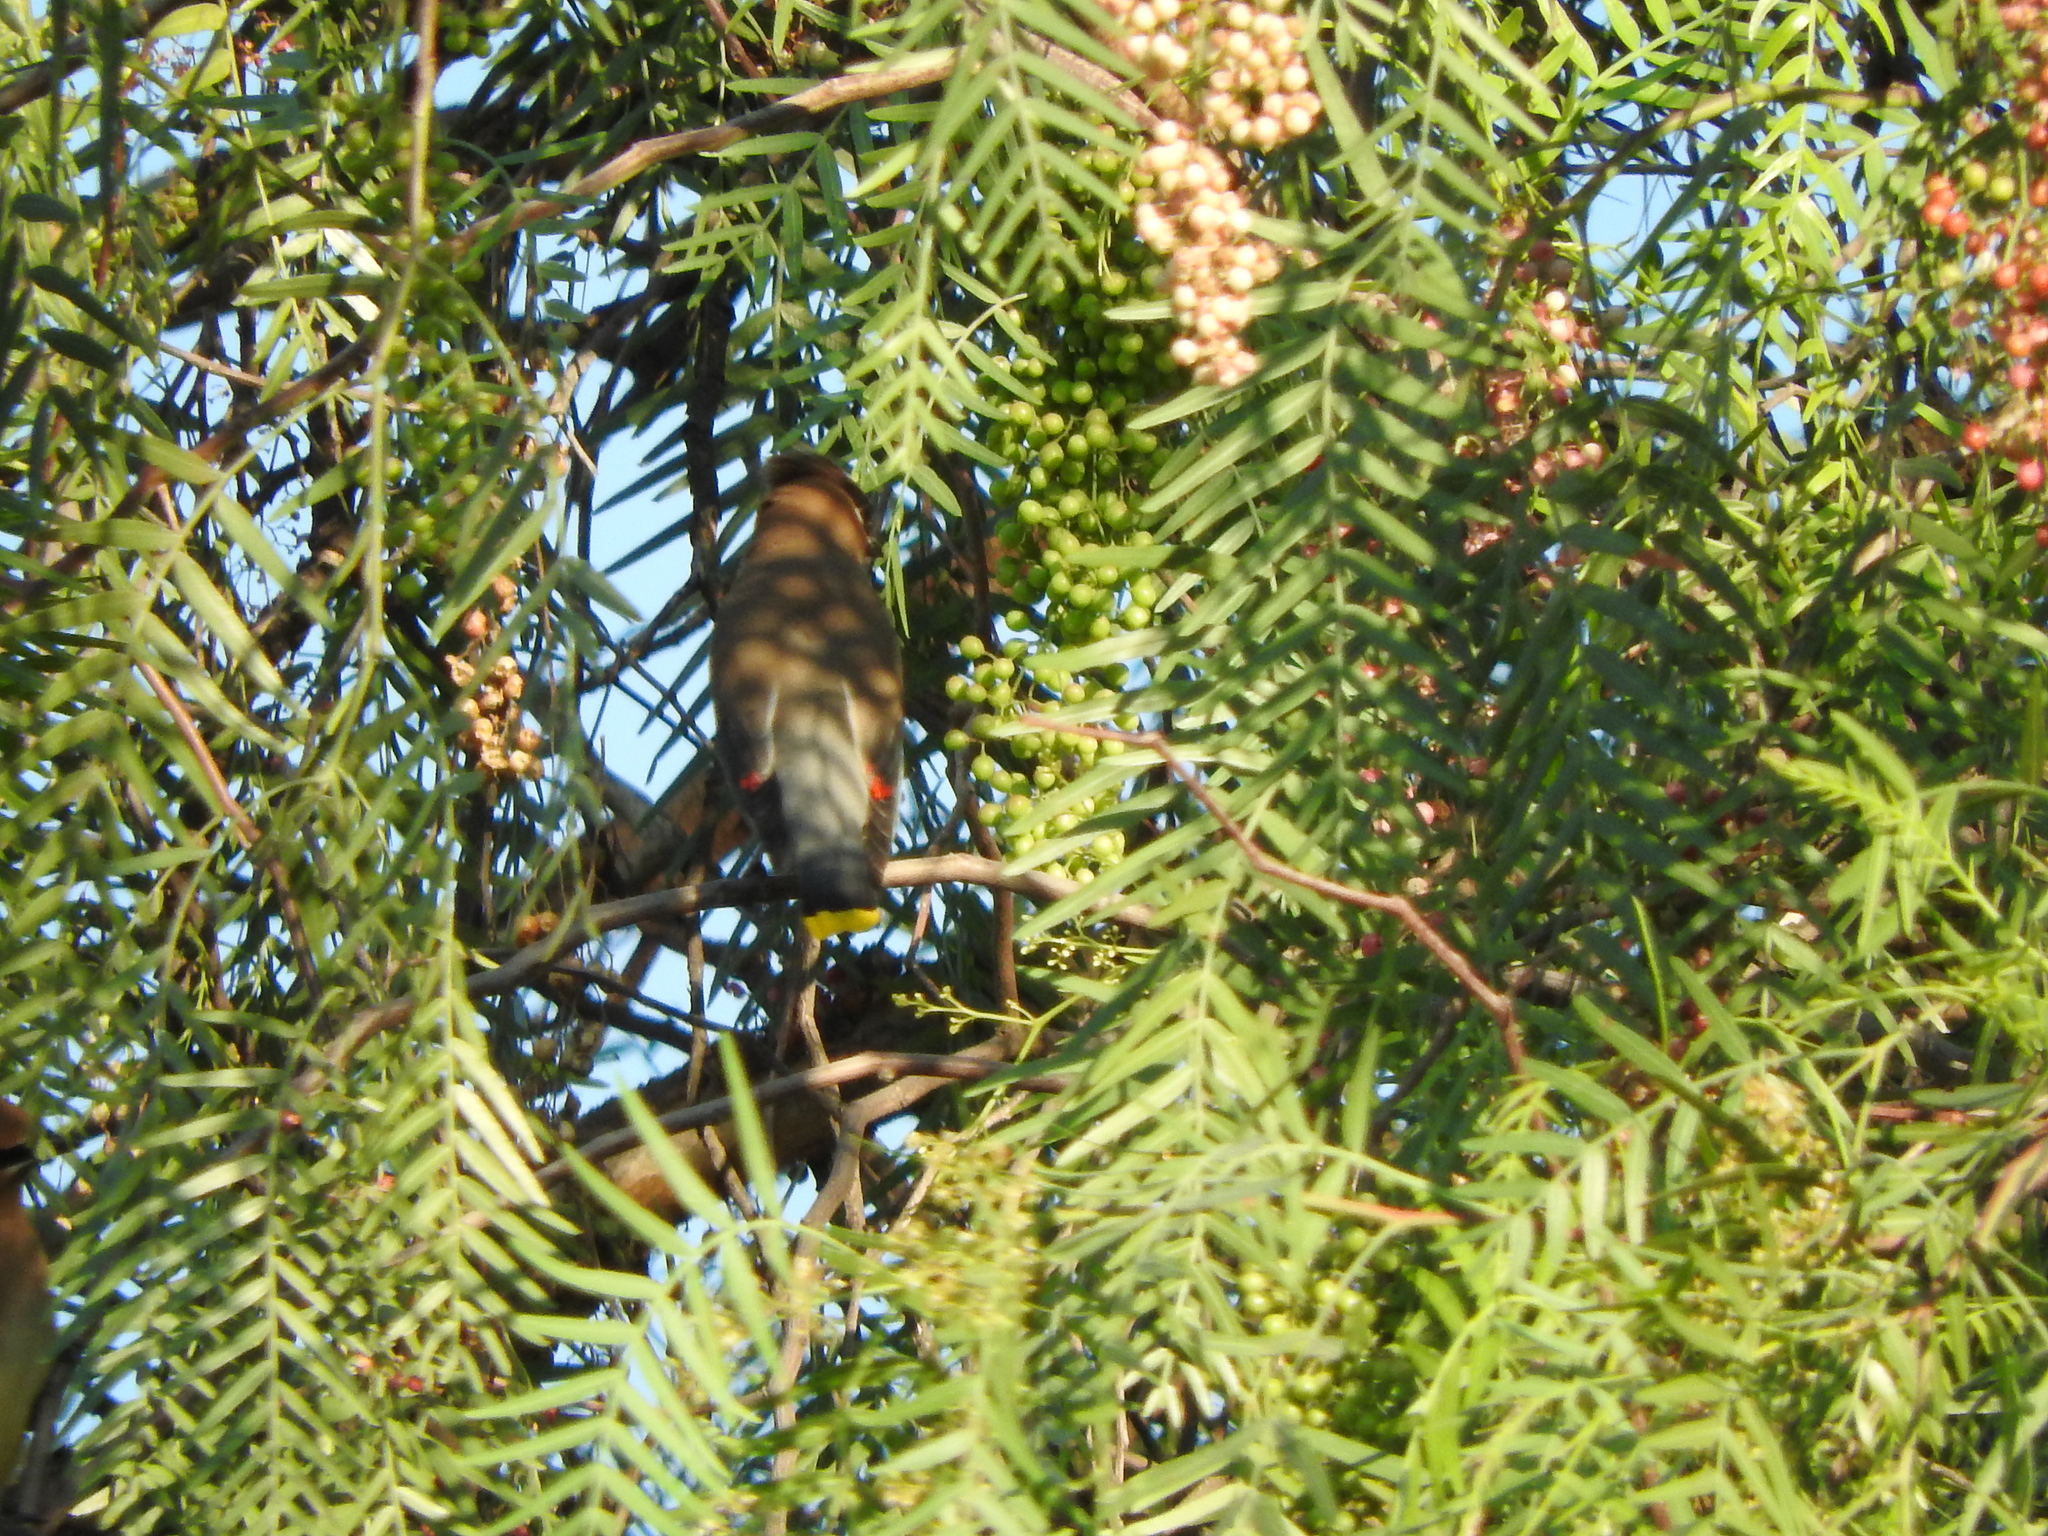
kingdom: Animalia
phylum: Chordata
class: Aves
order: Passeriformes
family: Bombycillidae
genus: Bombycilla
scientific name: Bombycilla cedrorum
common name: Cedar waxwing
